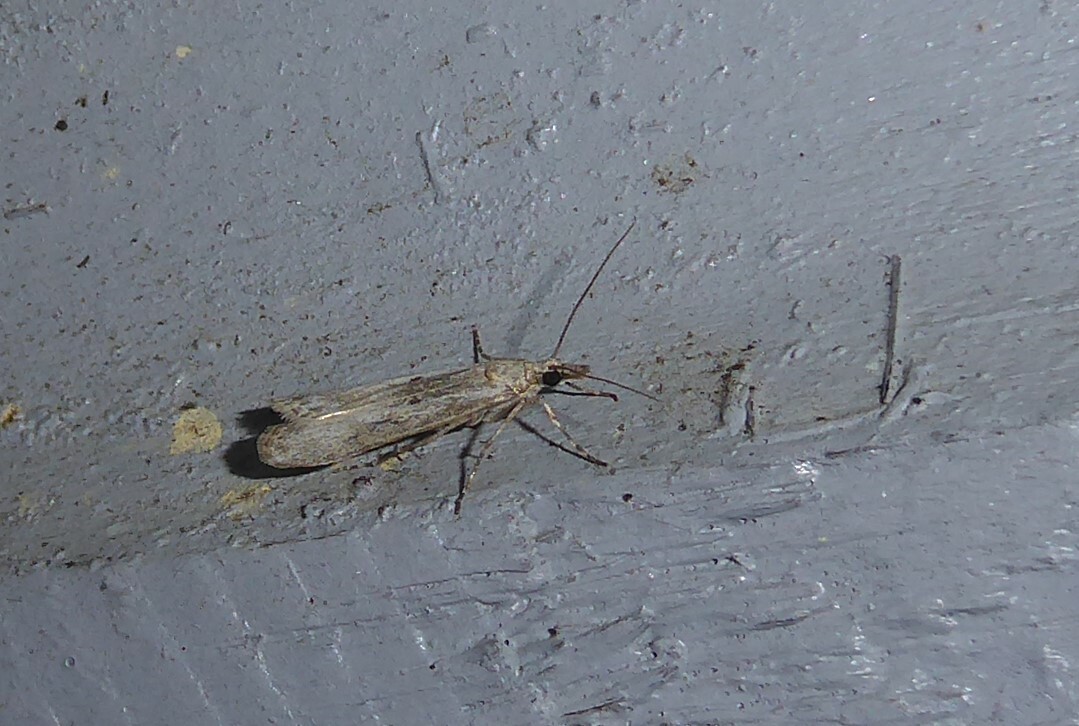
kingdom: Animalia
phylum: Arthropoda
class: Insecta
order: Lepidoptera
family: Crambidae
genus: Eudonia
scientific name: Eudonia leptalea
